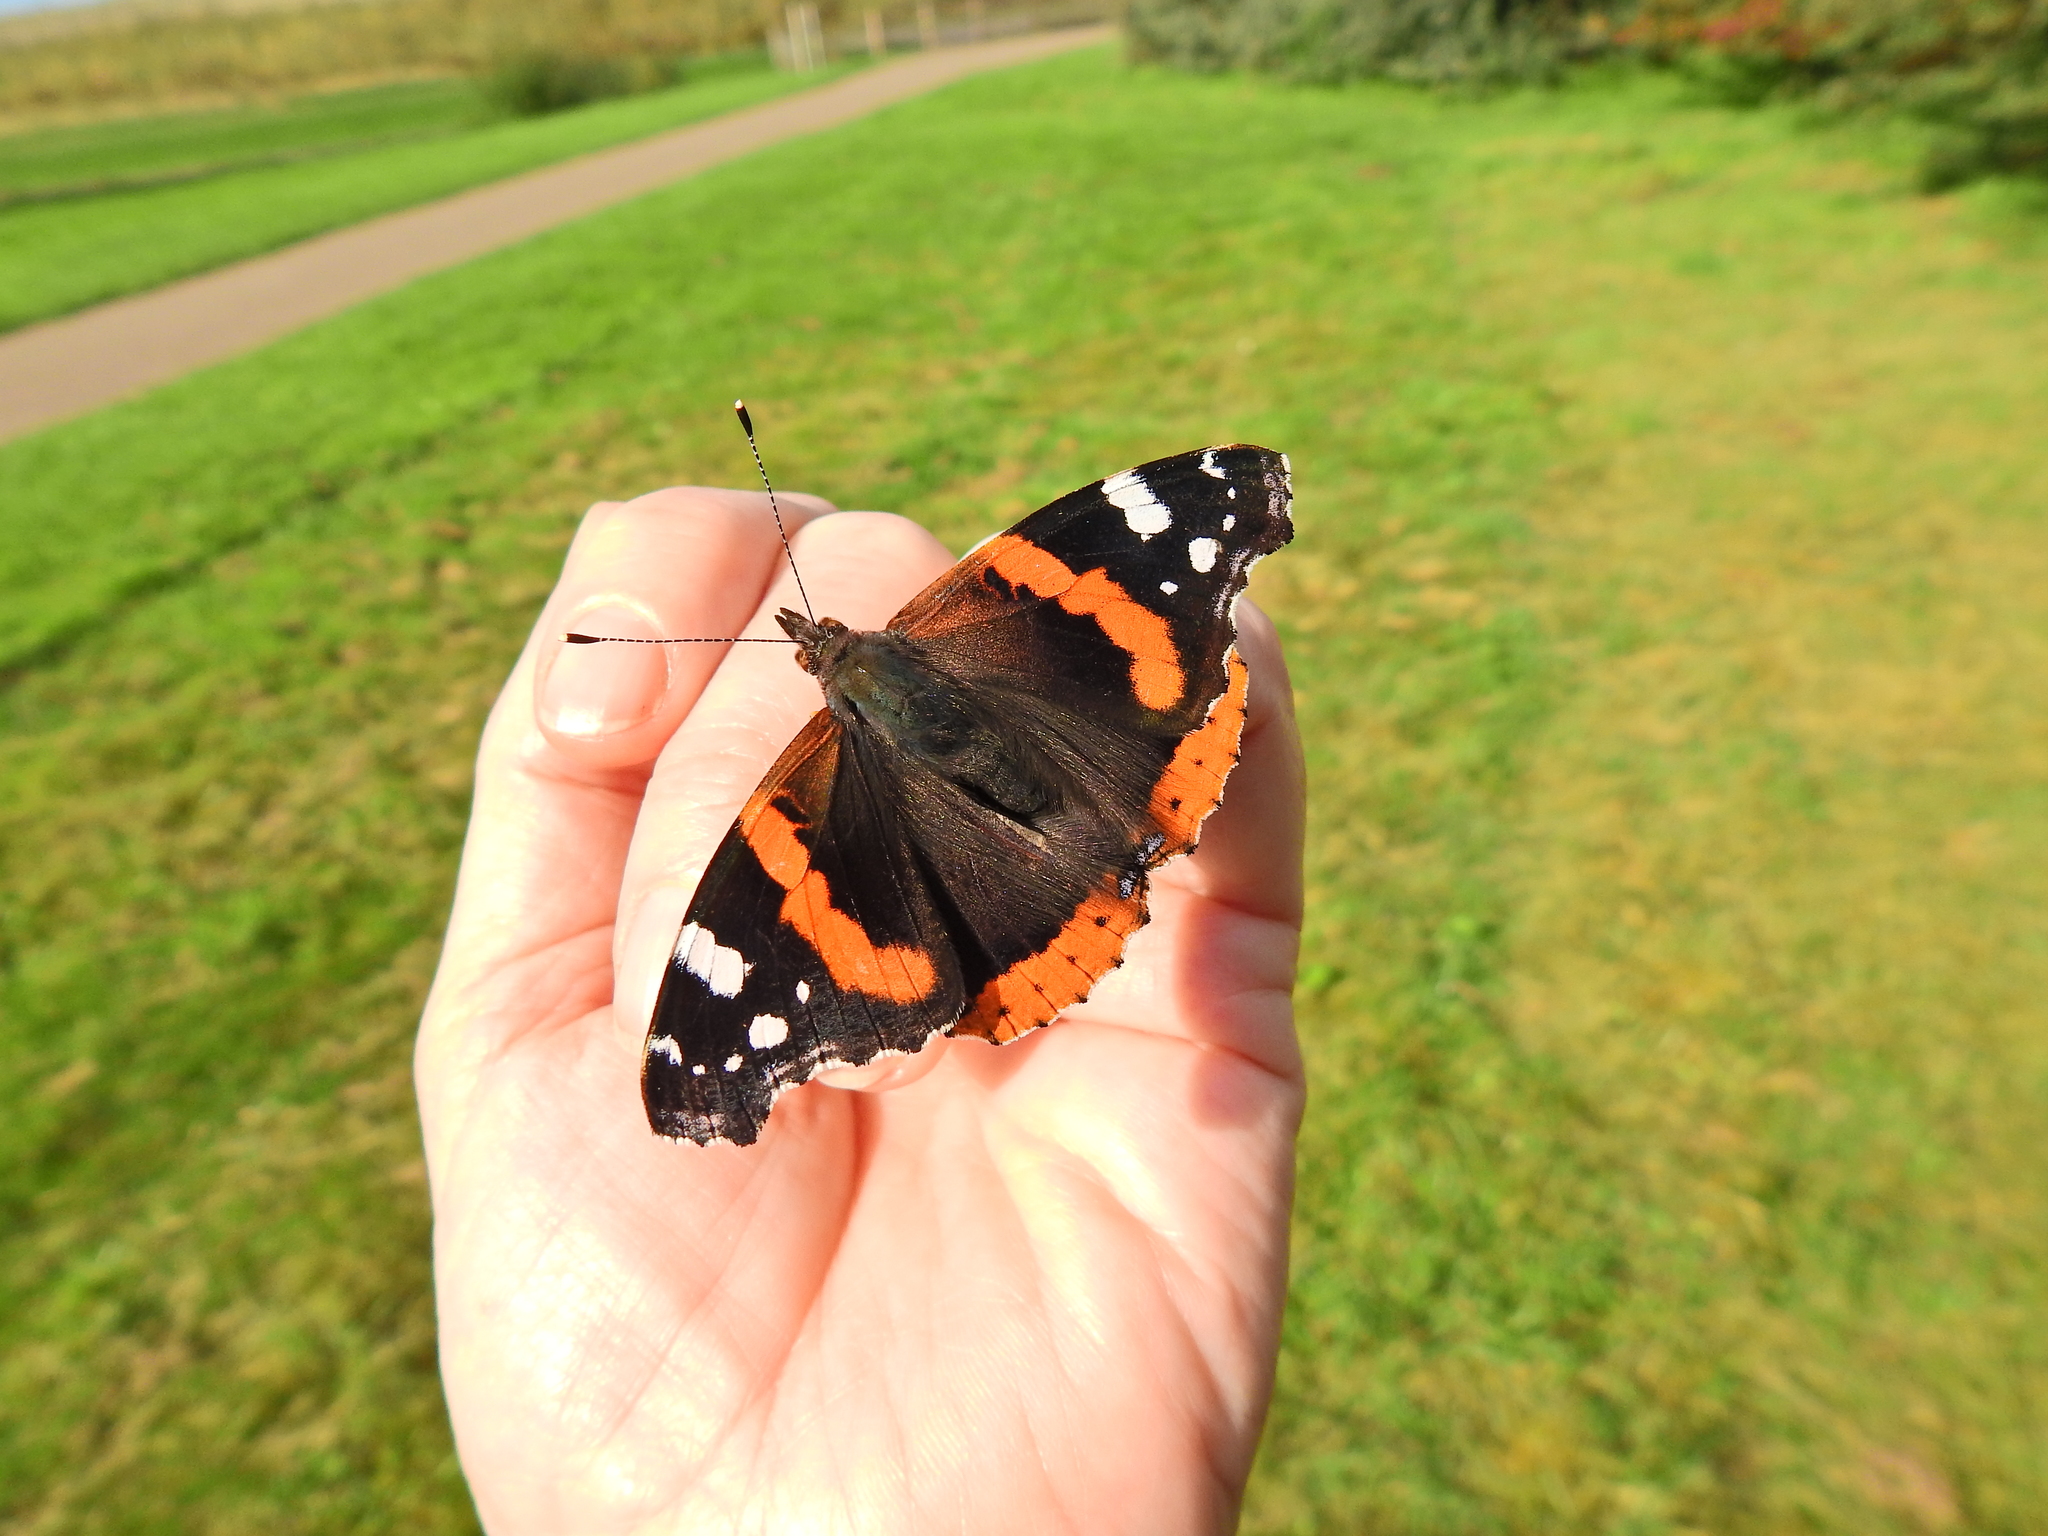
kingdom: Animalia
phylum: Arthropoda
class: Insecta
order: Lepidoptera
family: Nymphalidae
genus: Vanessa
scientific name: Vanessa atalanta
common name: Red admiral
